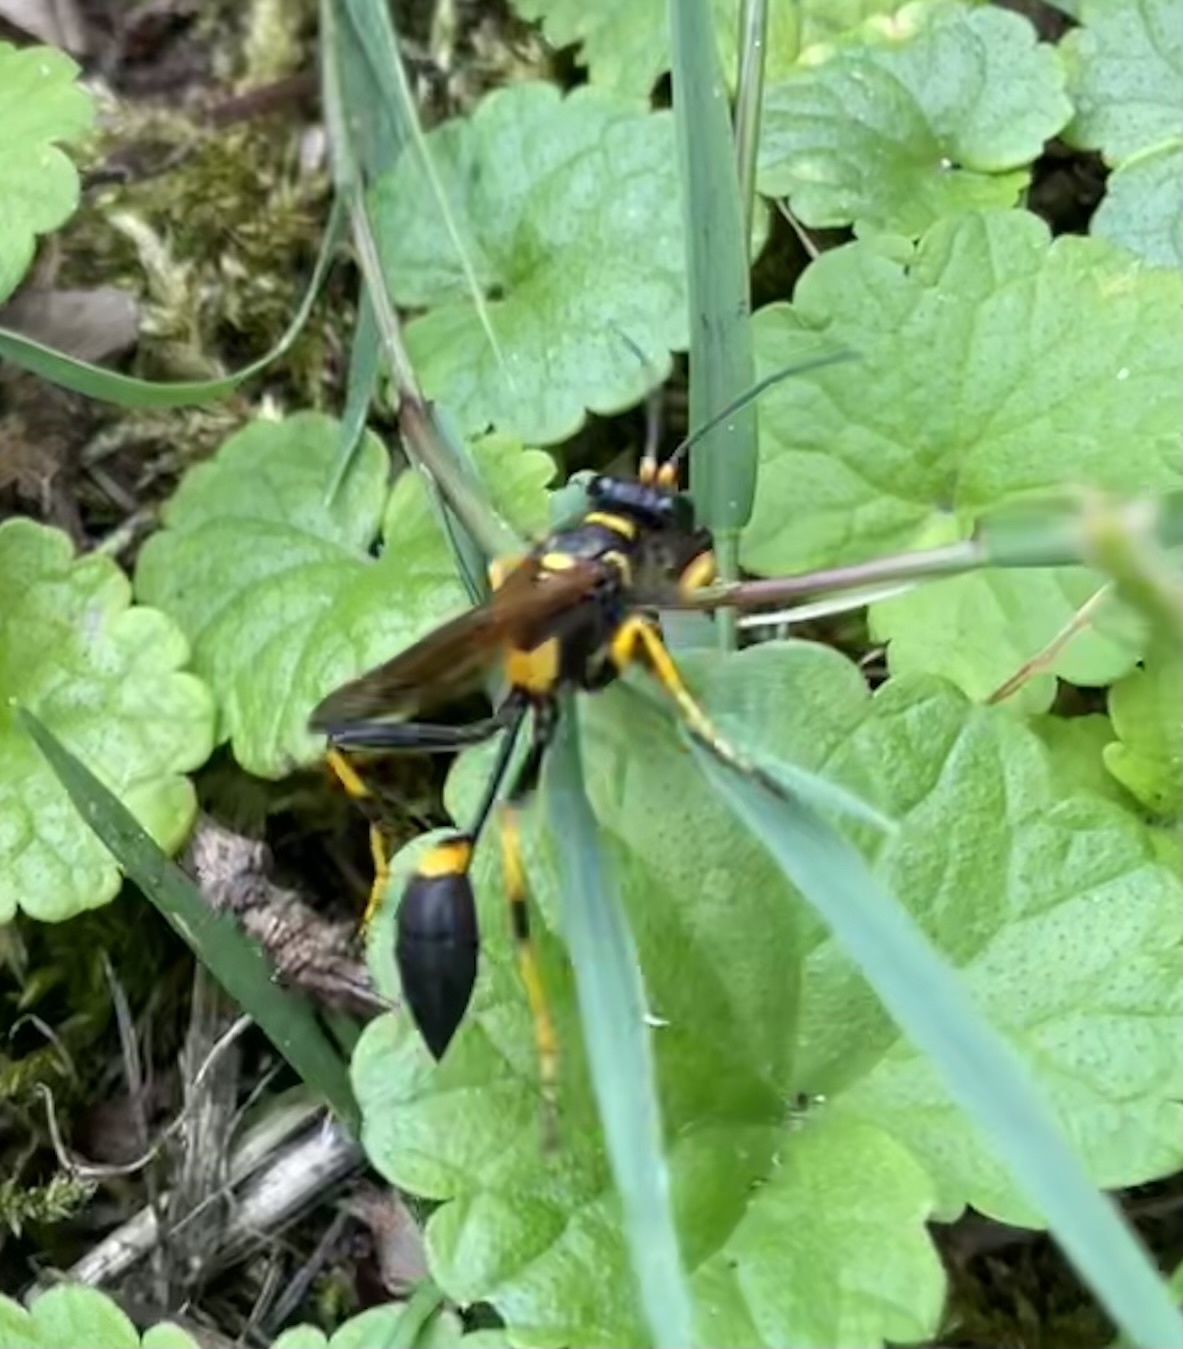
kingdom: Animalia
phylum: Arthropoda
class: Insecta
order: Hymenoptera
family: Sphecidae
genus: Sceliphron
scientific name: Sceliphron caementarium
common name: Mud dauber
